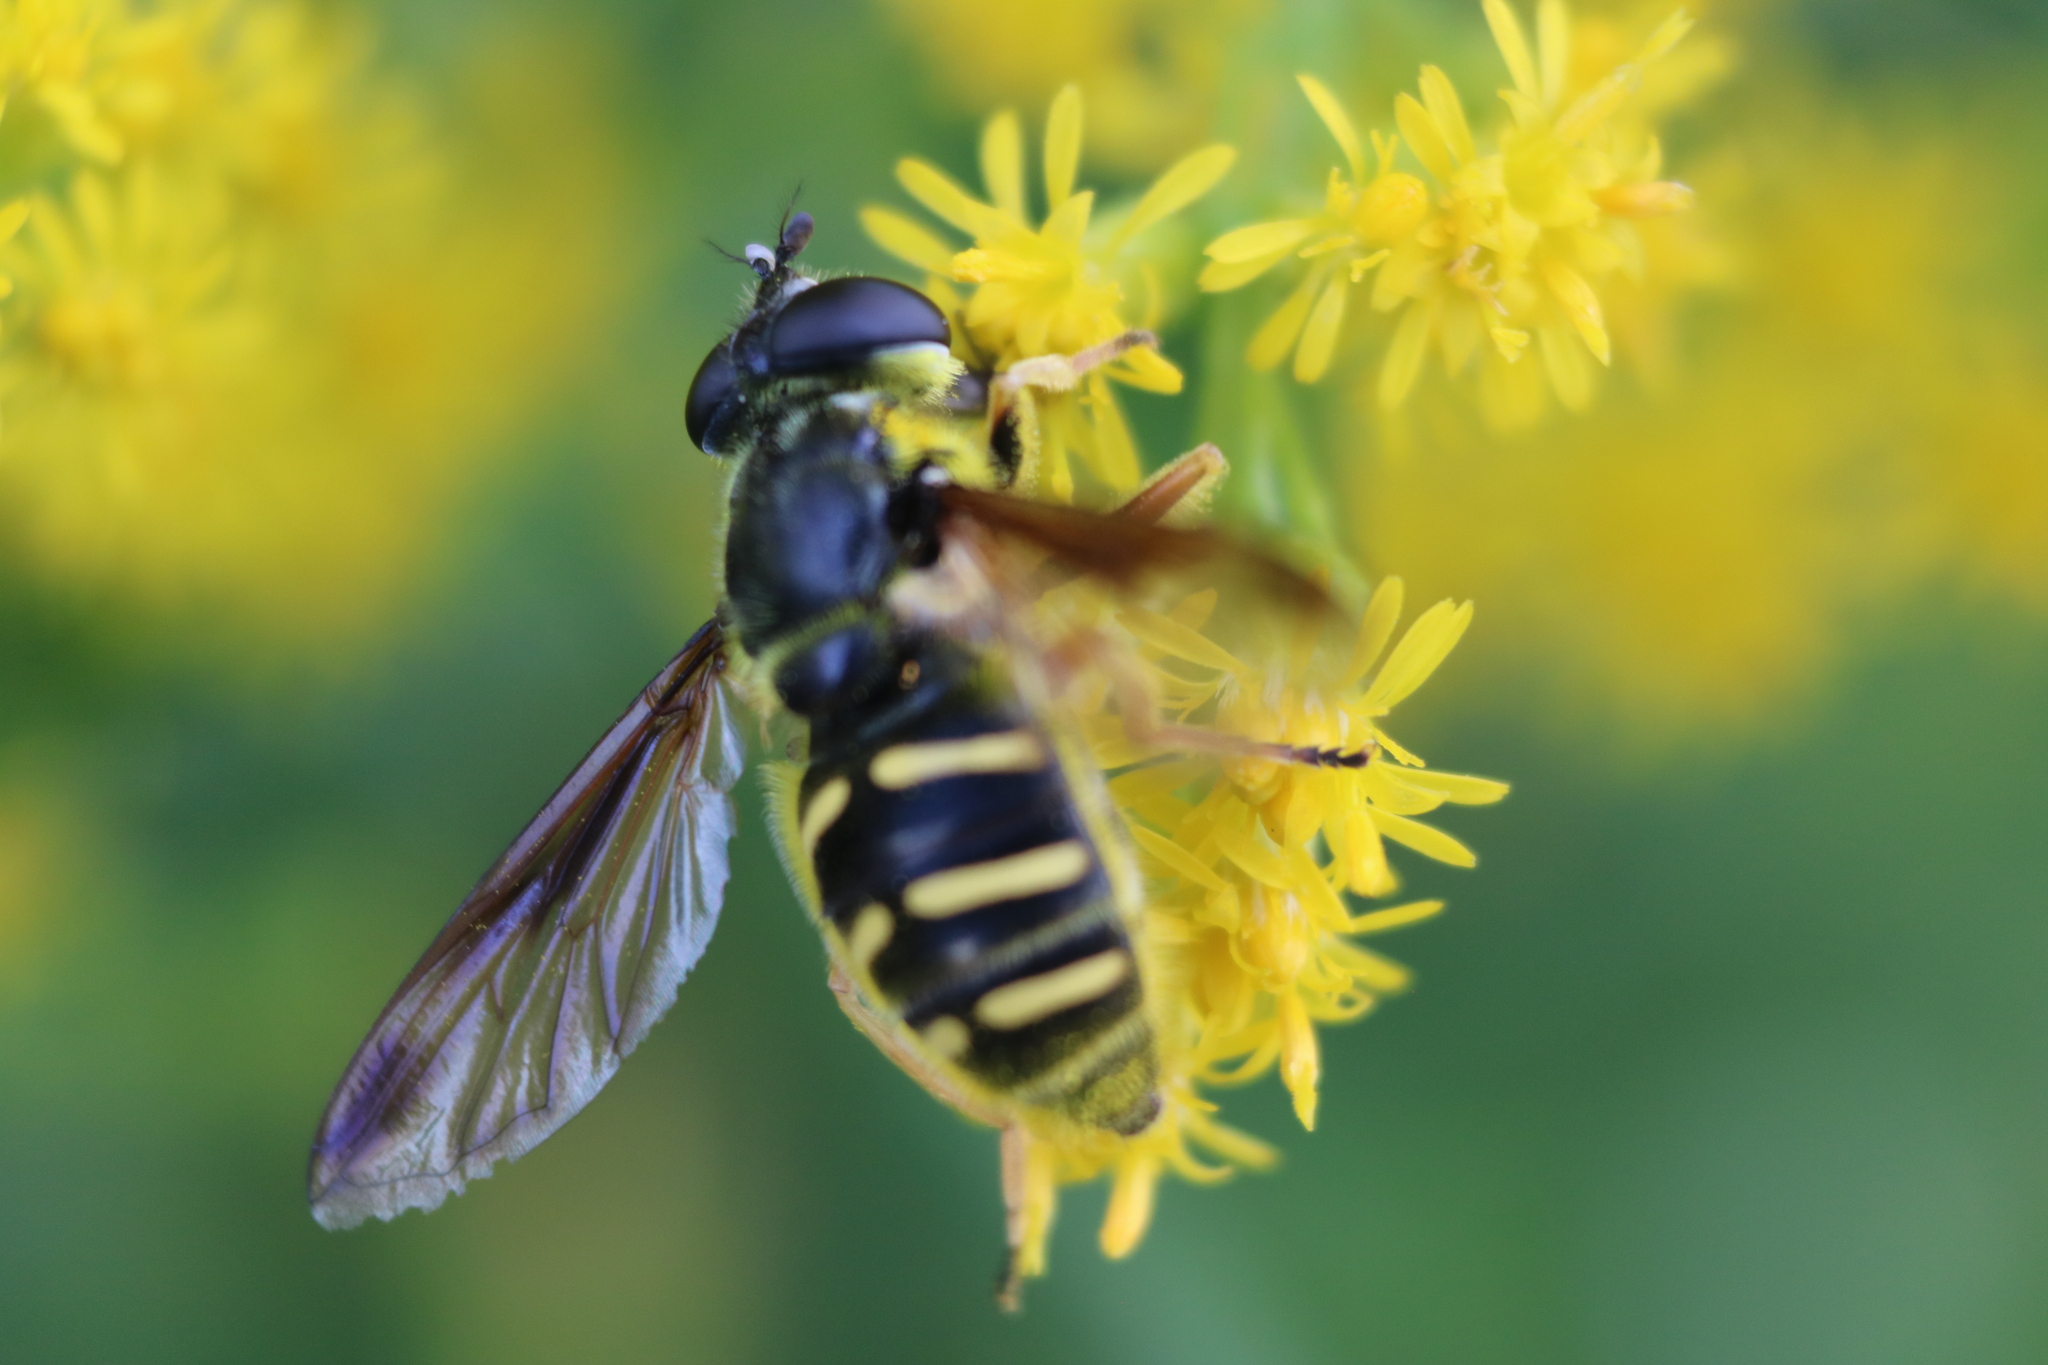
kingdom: Animalia
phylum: Arthropoda
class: Insecta
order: Diptera
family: Syrphidae
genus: Sericomyia
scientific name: Sericomyia chrysotoxoides
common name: Oblique-banded pond fly
